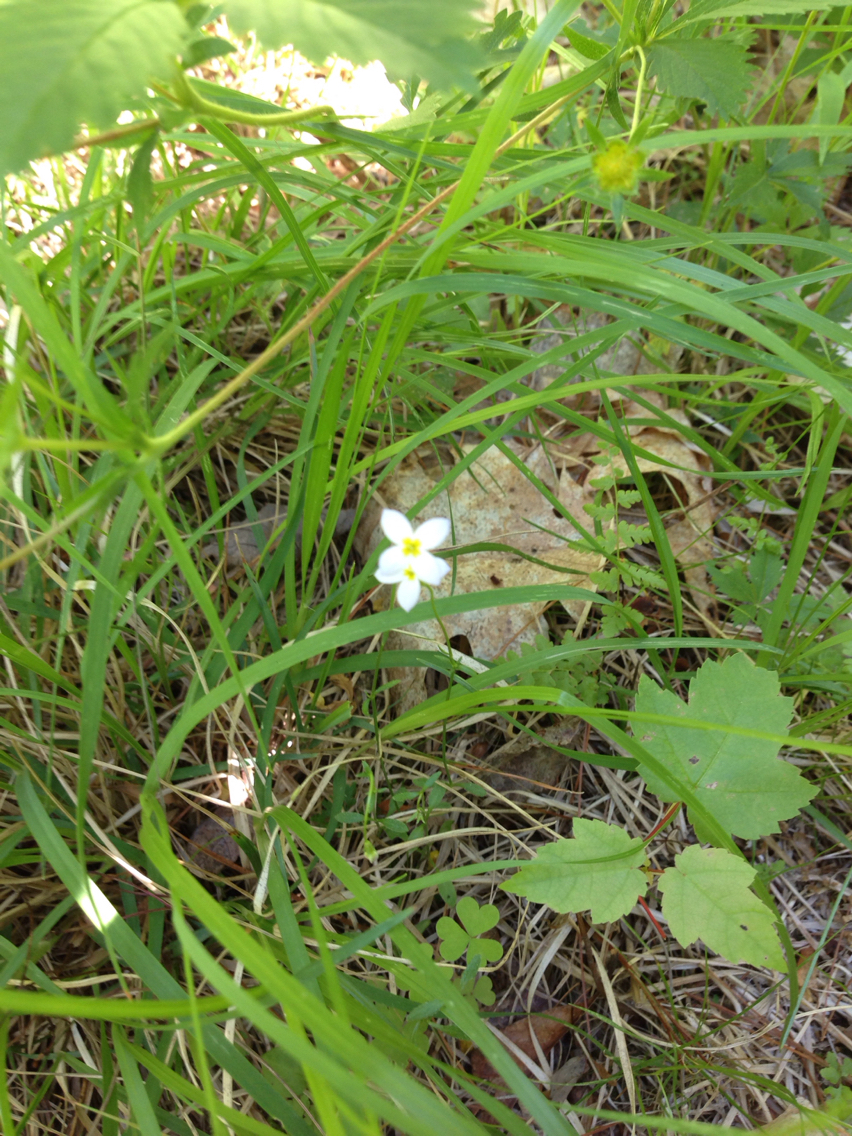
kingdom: Plantae
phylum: Tracheophyta
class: Magnoliopsida
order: Gentianales
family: Rubiaceae
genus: Houstonia
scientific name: Houstonia caerulea
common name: Bluets
